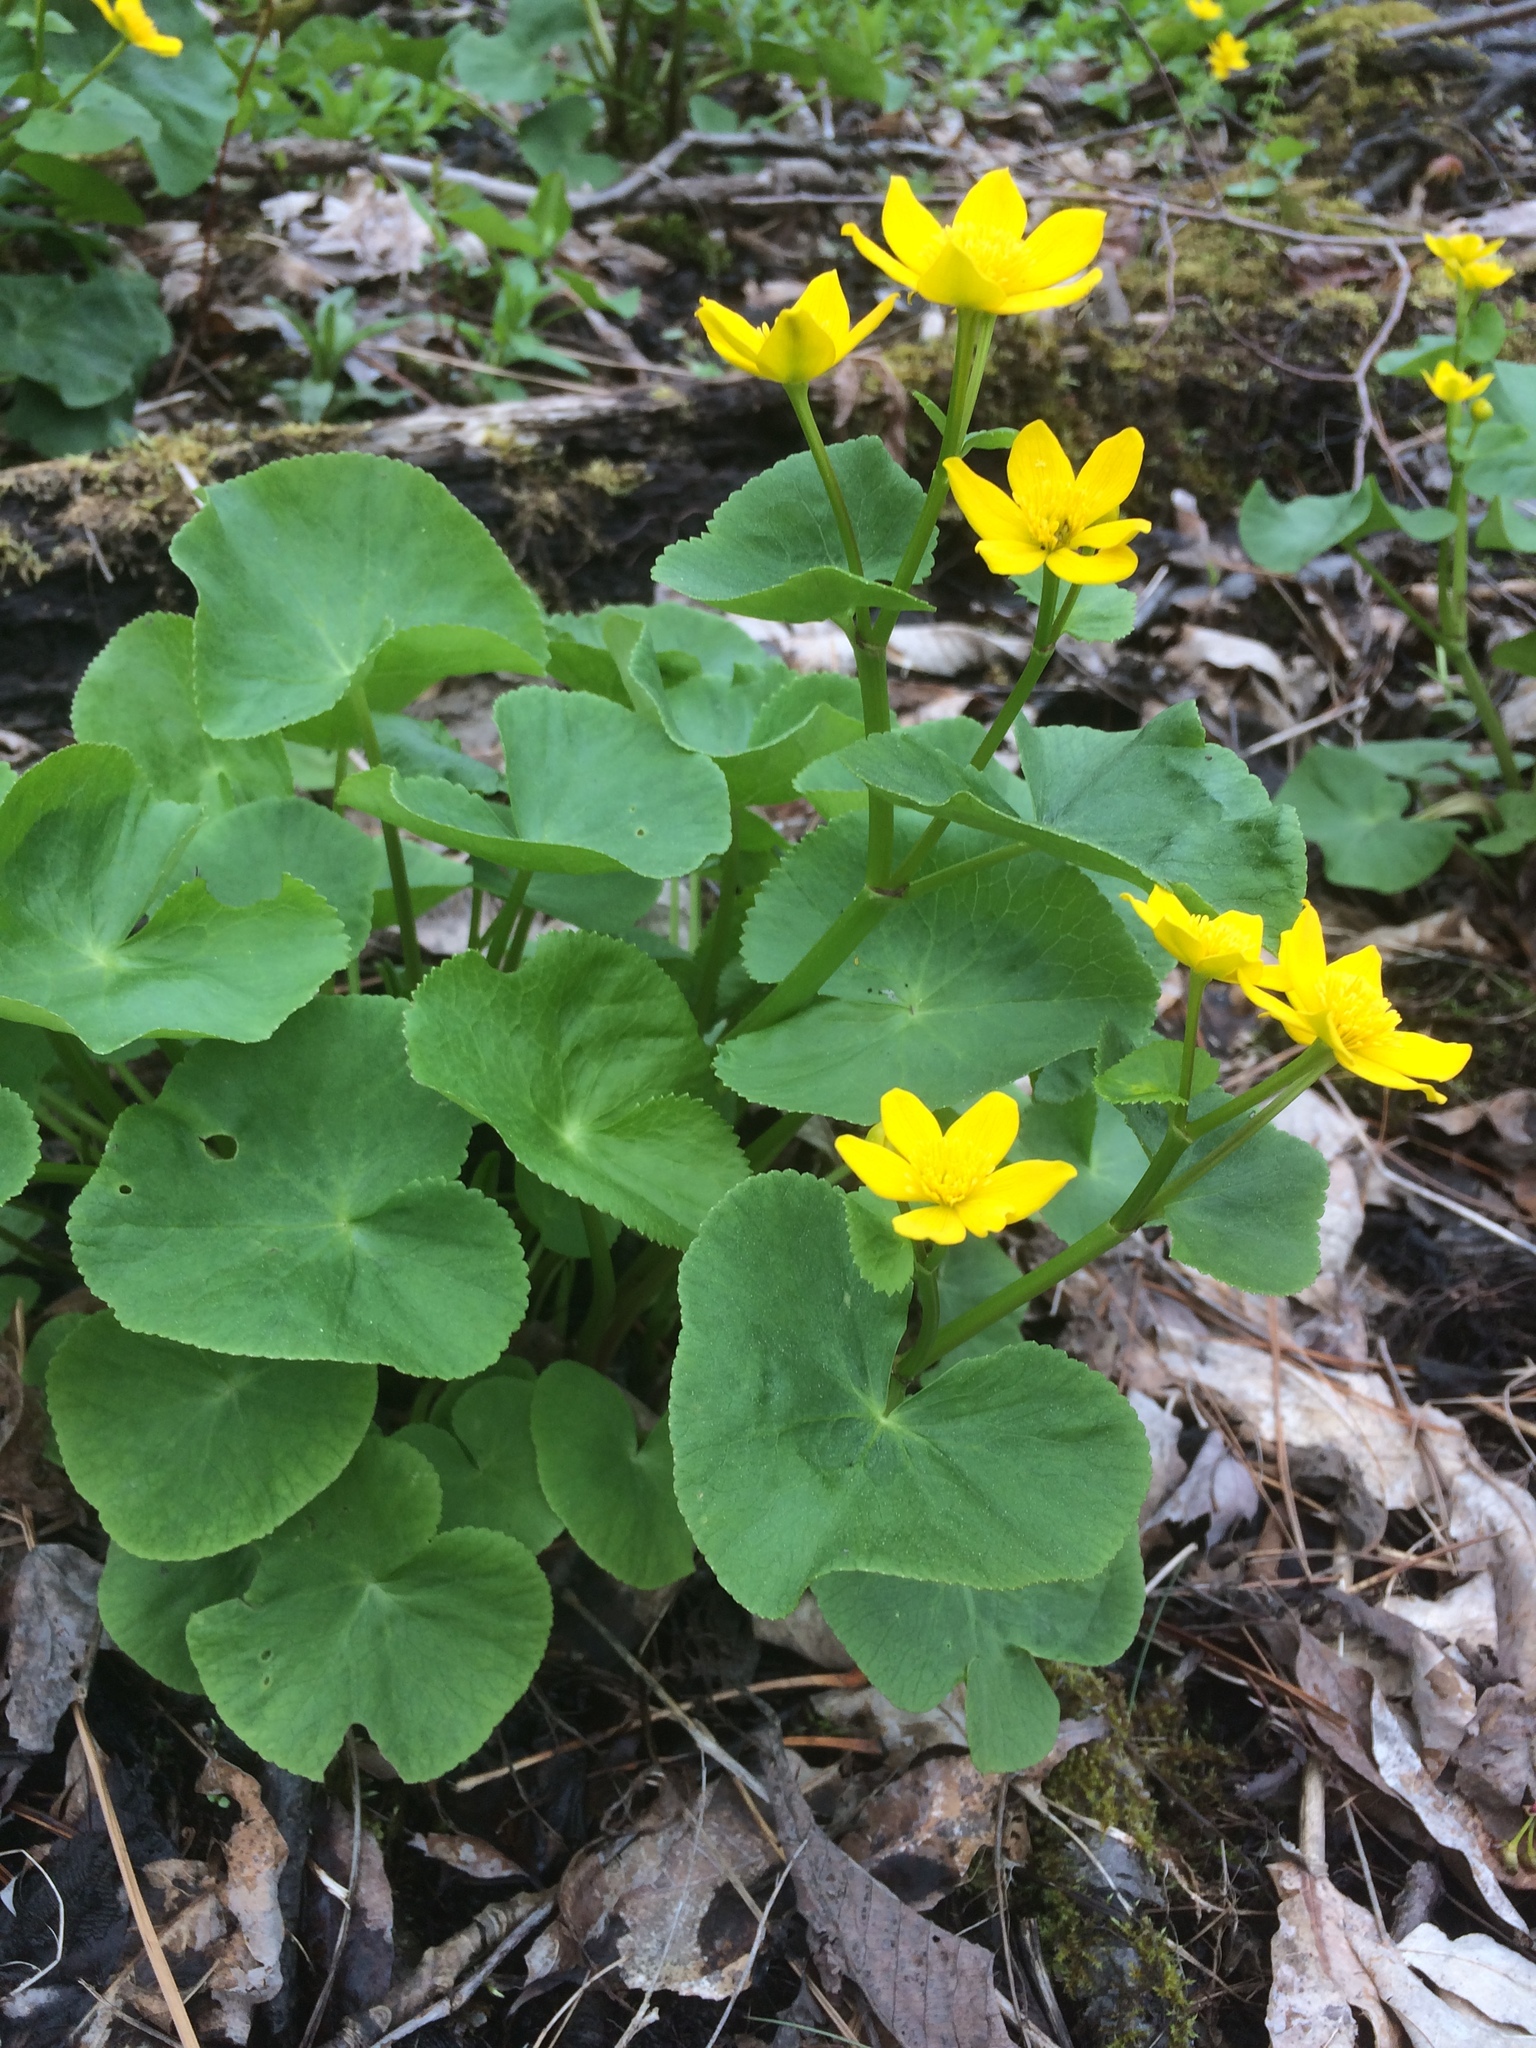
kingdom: Plantae
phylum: Tracheophyta
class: Magnoliopsida
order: Ranunculales
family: Ranunculaceae
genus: Caltha
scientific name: Caltha palustris
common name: Marsh marigold
